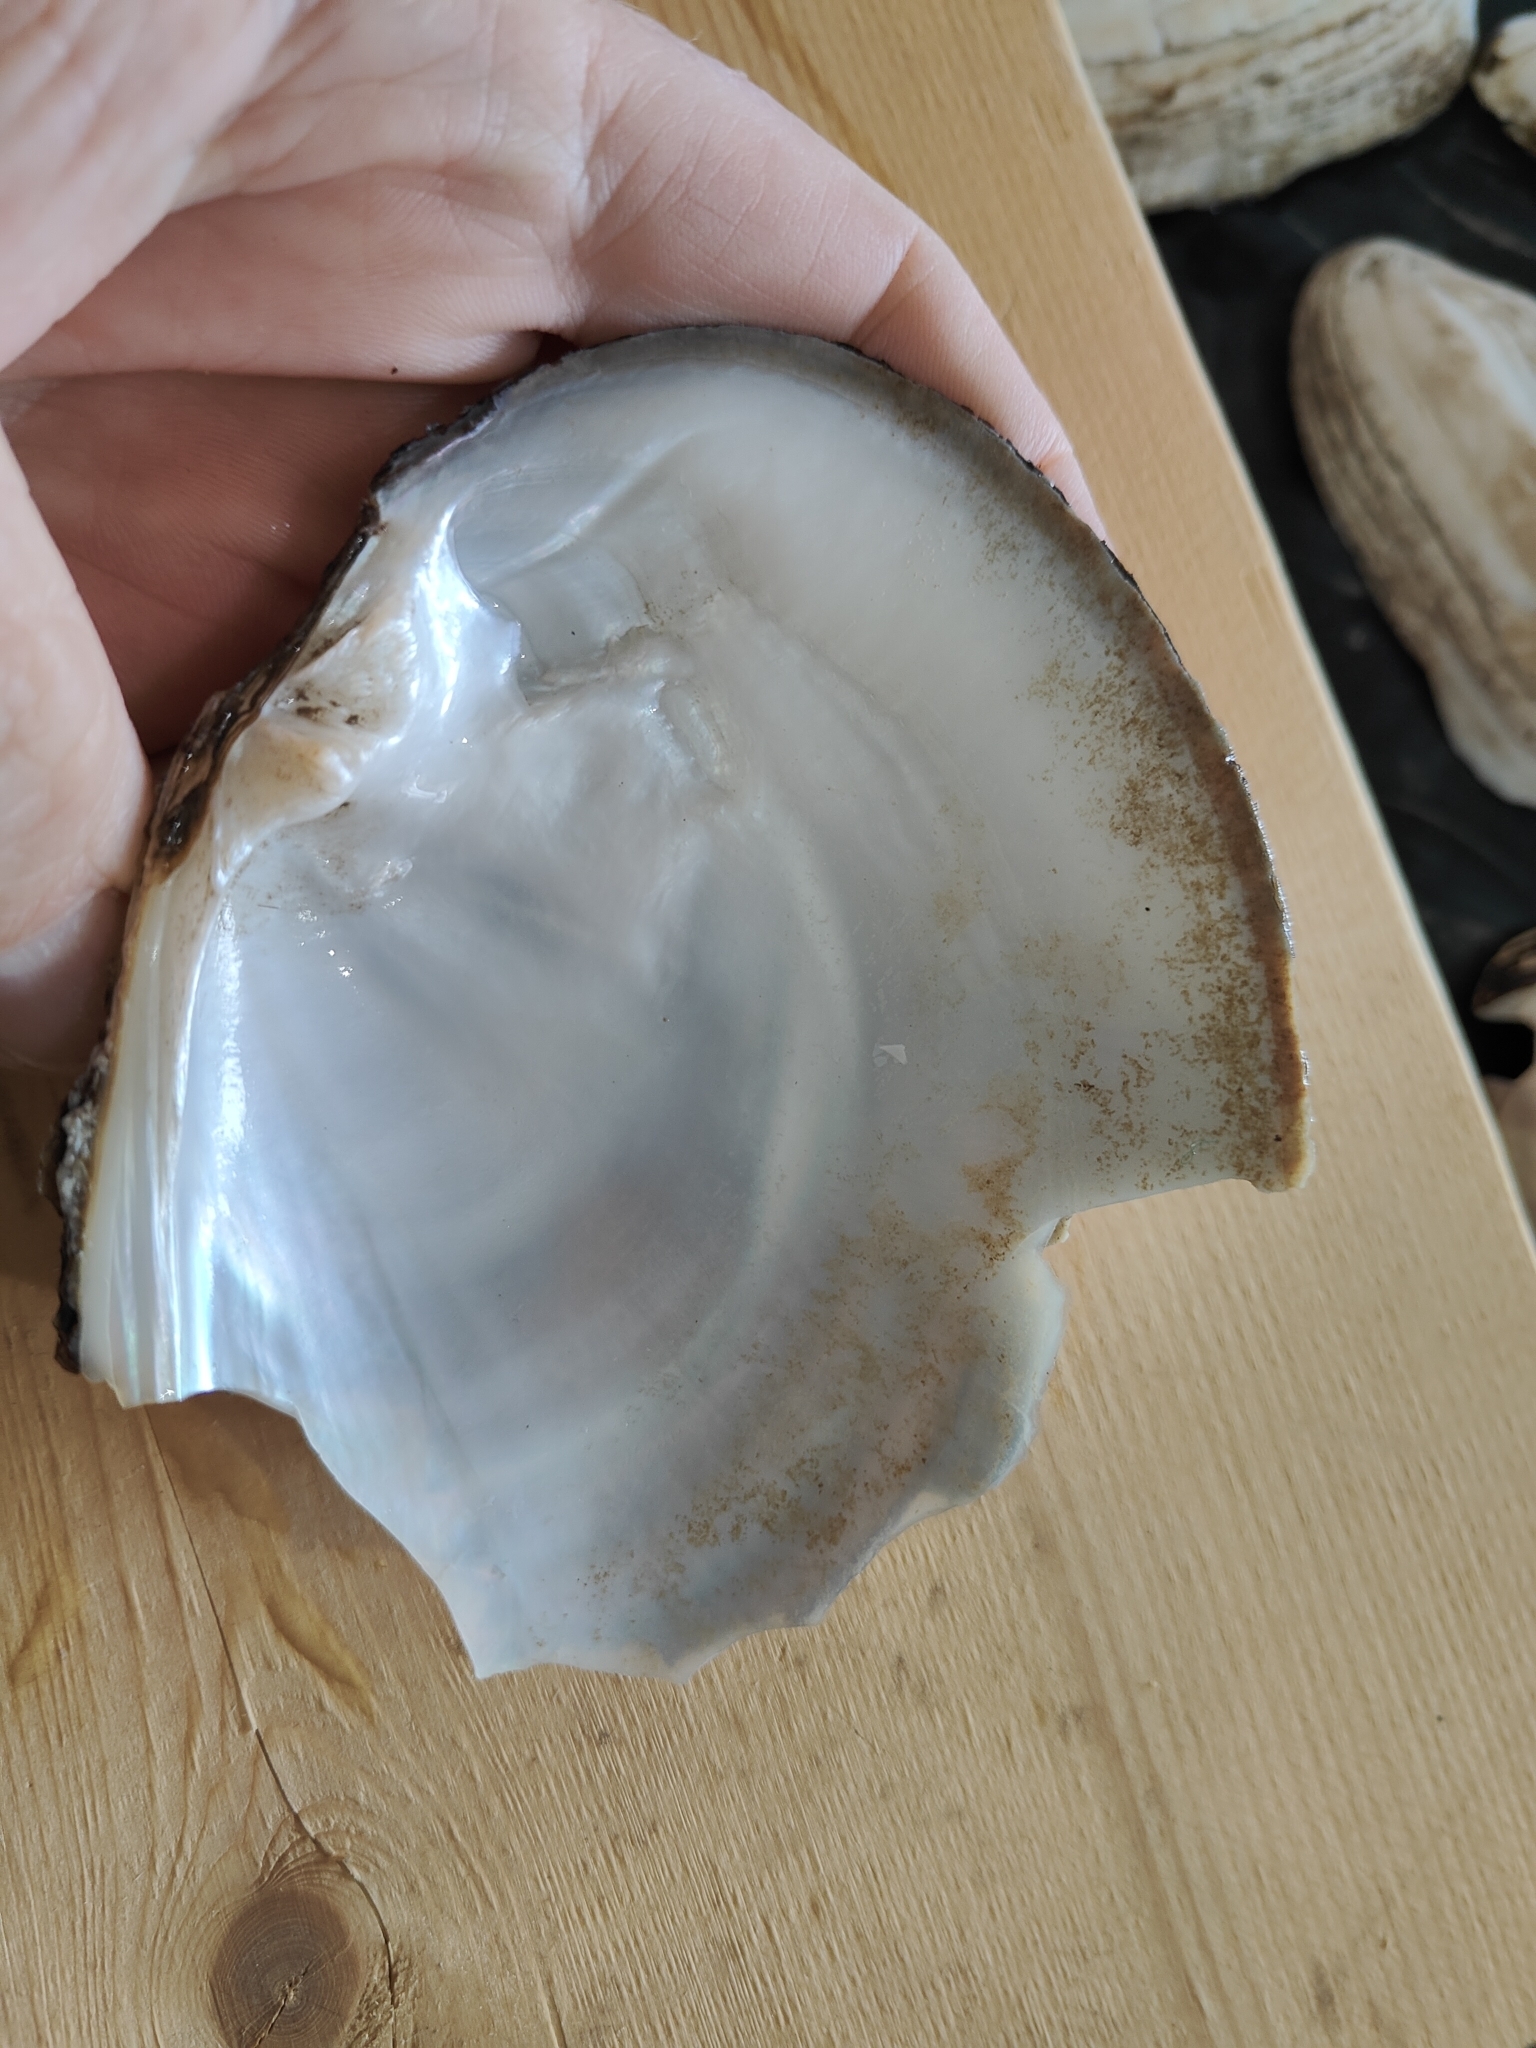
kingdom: Animalia
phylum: Mollusca
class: Bivalvia
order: Unionida
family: Unionidae
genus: Lasmigona
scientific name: Lasmigona complanata
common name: White heelsplitter
